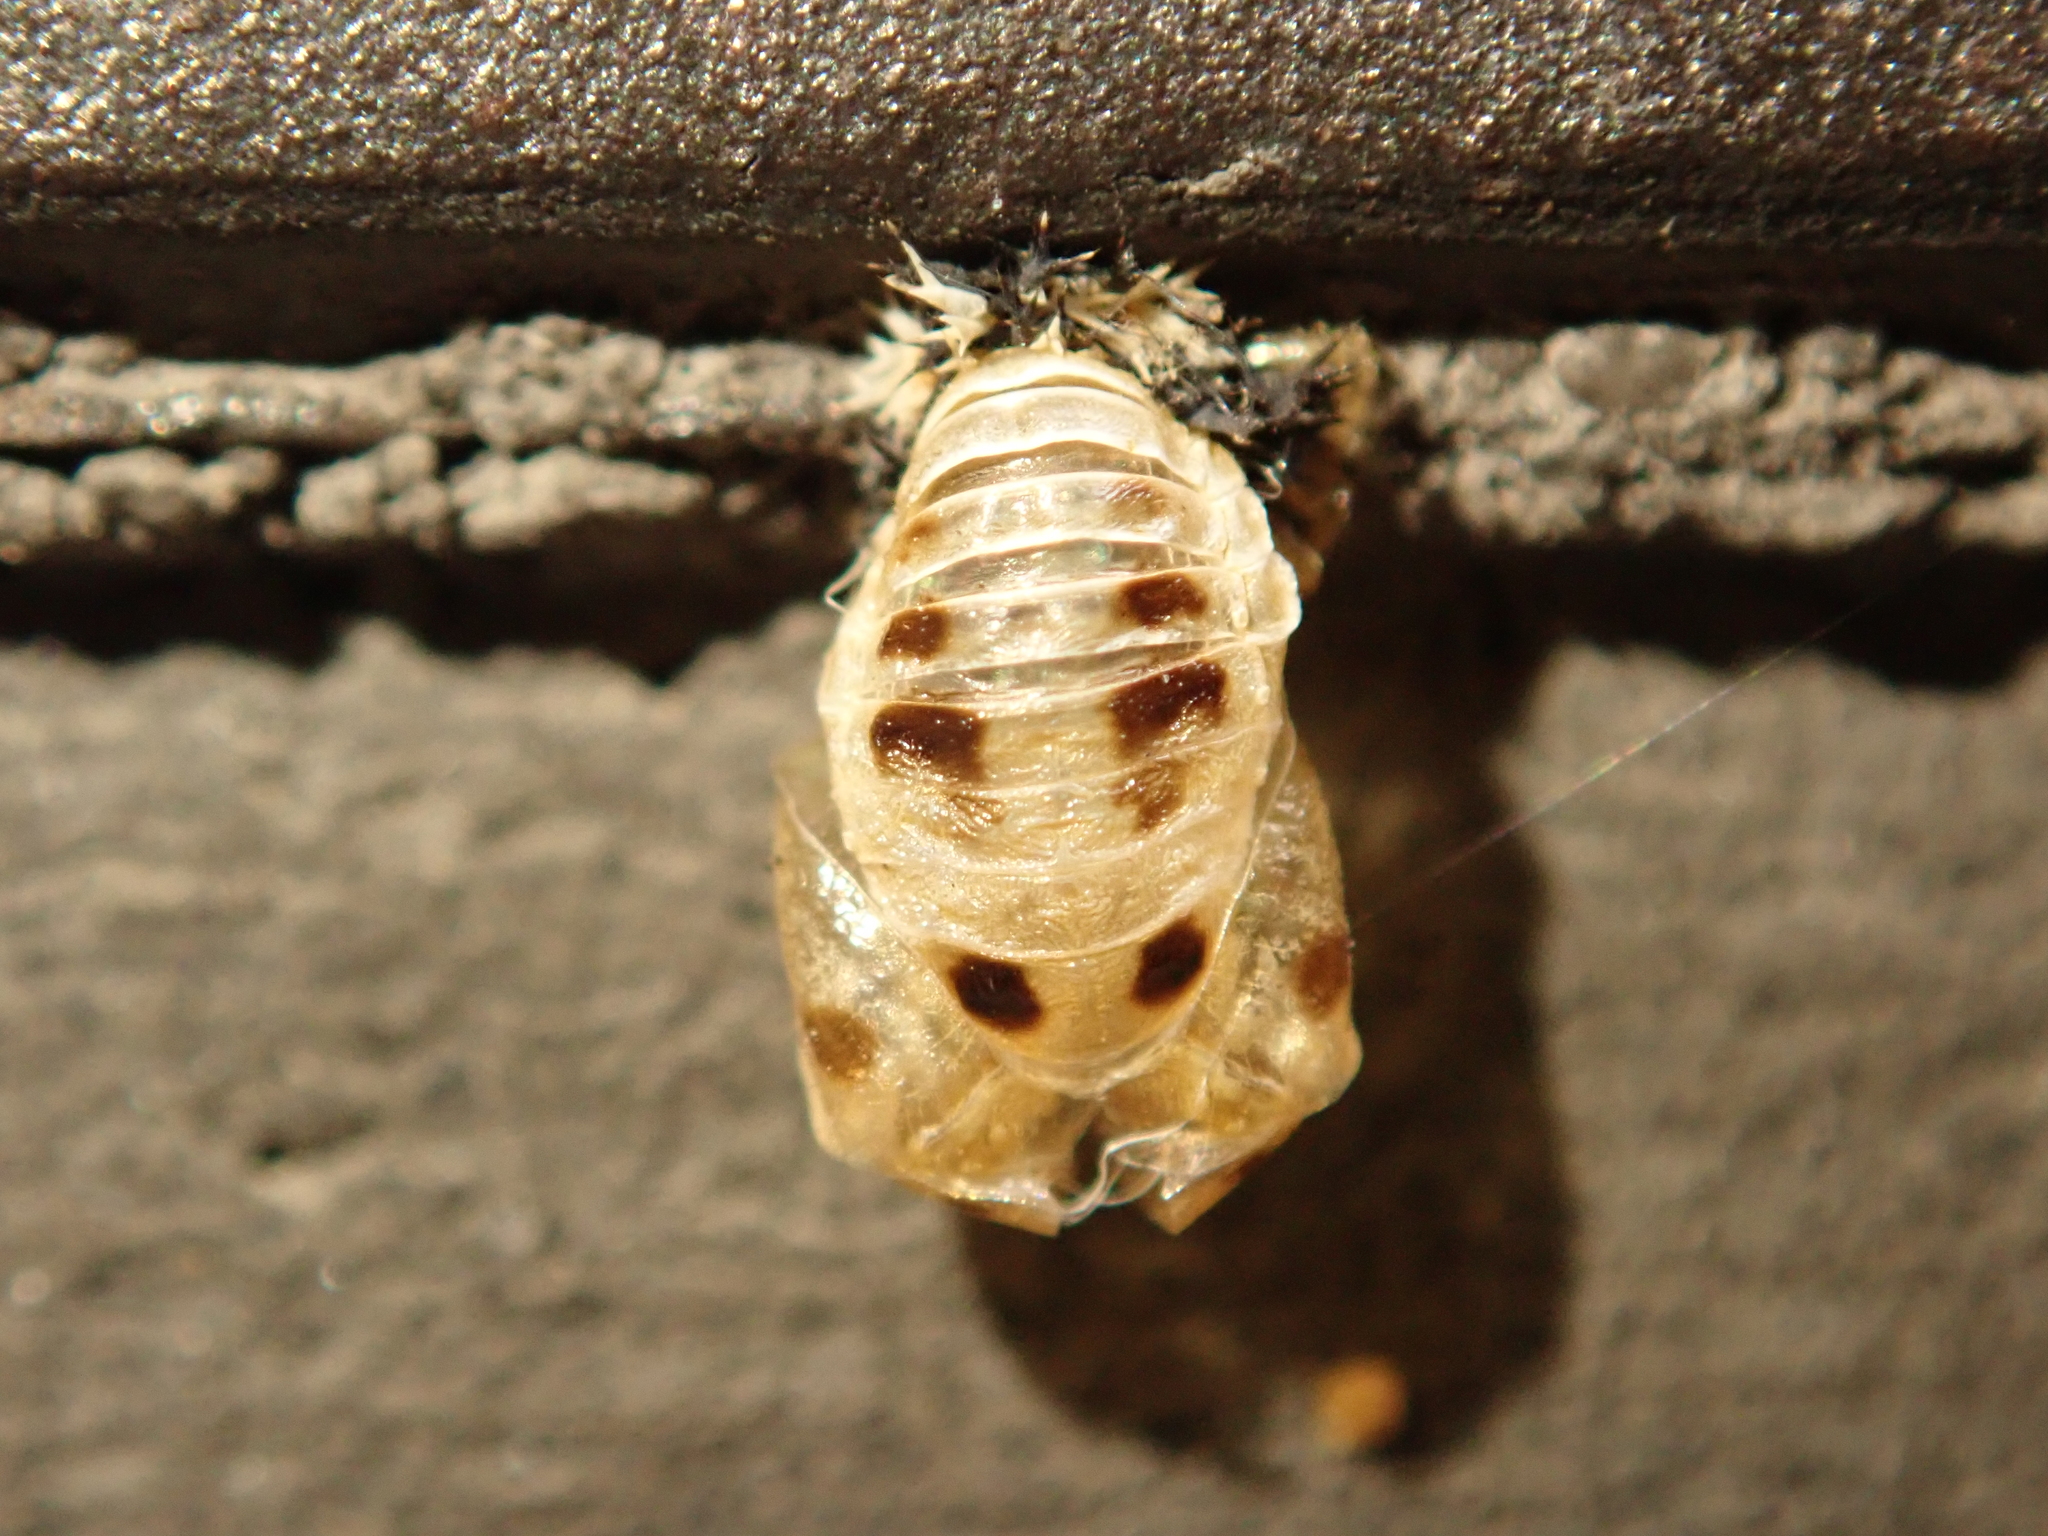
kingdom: Animalia
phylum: Arthropoda
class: Insecta
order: Coleoptera
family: Coccinellidae
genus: Harmonia
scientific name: Harmonia axyridis
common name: Harlequin ladybird
